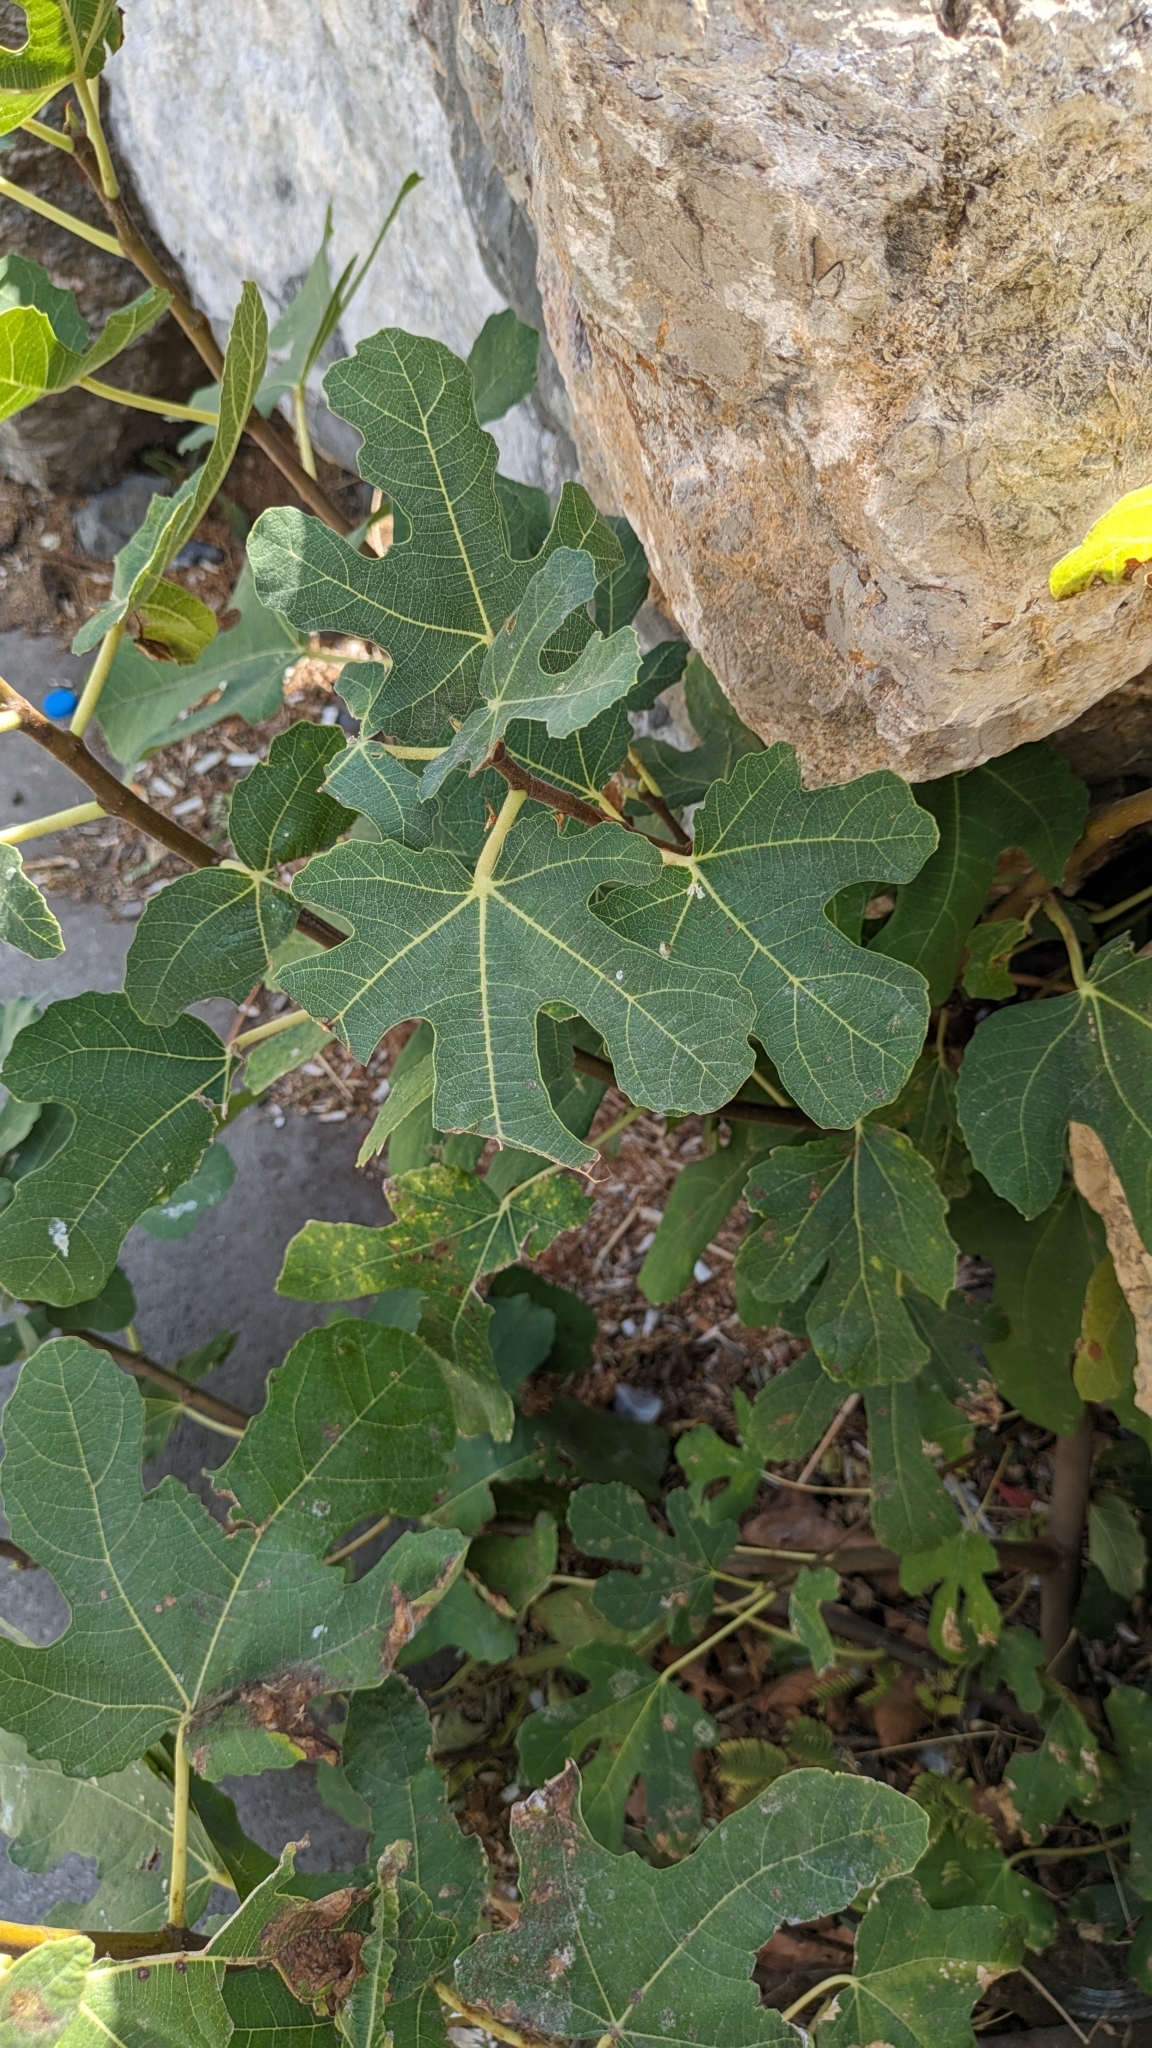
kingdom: Plantae
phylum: Tracheophyta
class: Magnoliopsida
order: Rosales
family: Moraceae
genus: Ficus
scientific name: Ficus carica
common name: Fig
